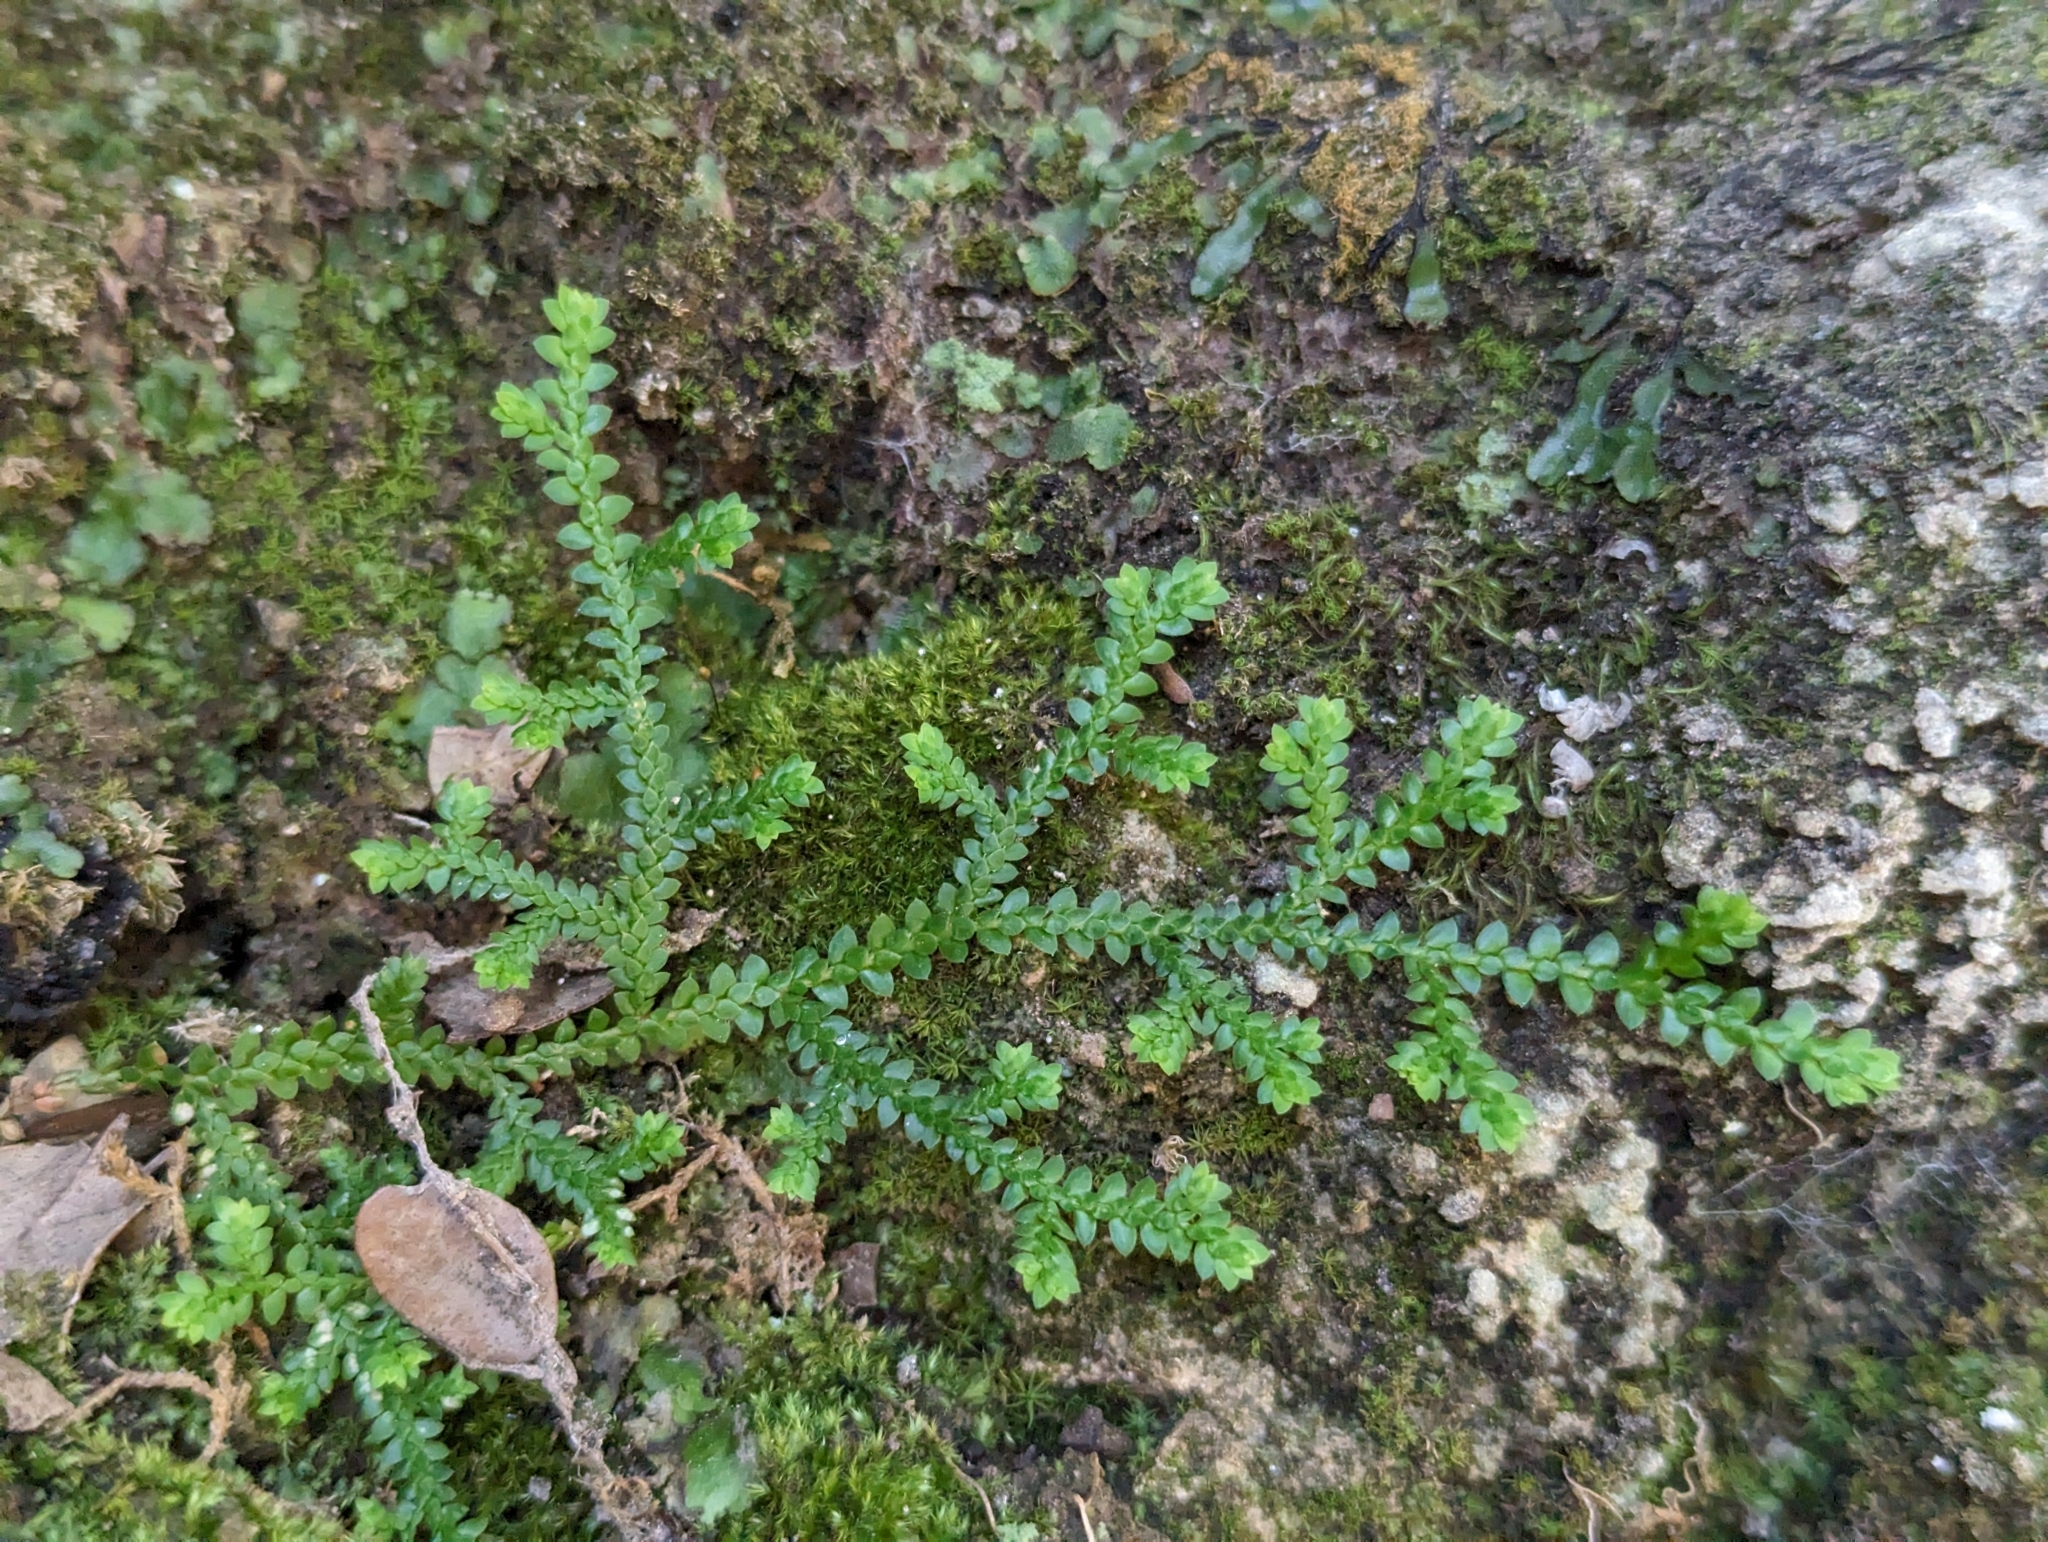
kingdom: Plantae
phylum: Tracheophyta
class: Lycopodiopsida
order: Selaginellales
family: Selaginellaceae
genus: Selaginella
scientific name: Selaginella denticulata
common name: Toothed-leaved clubmoss
